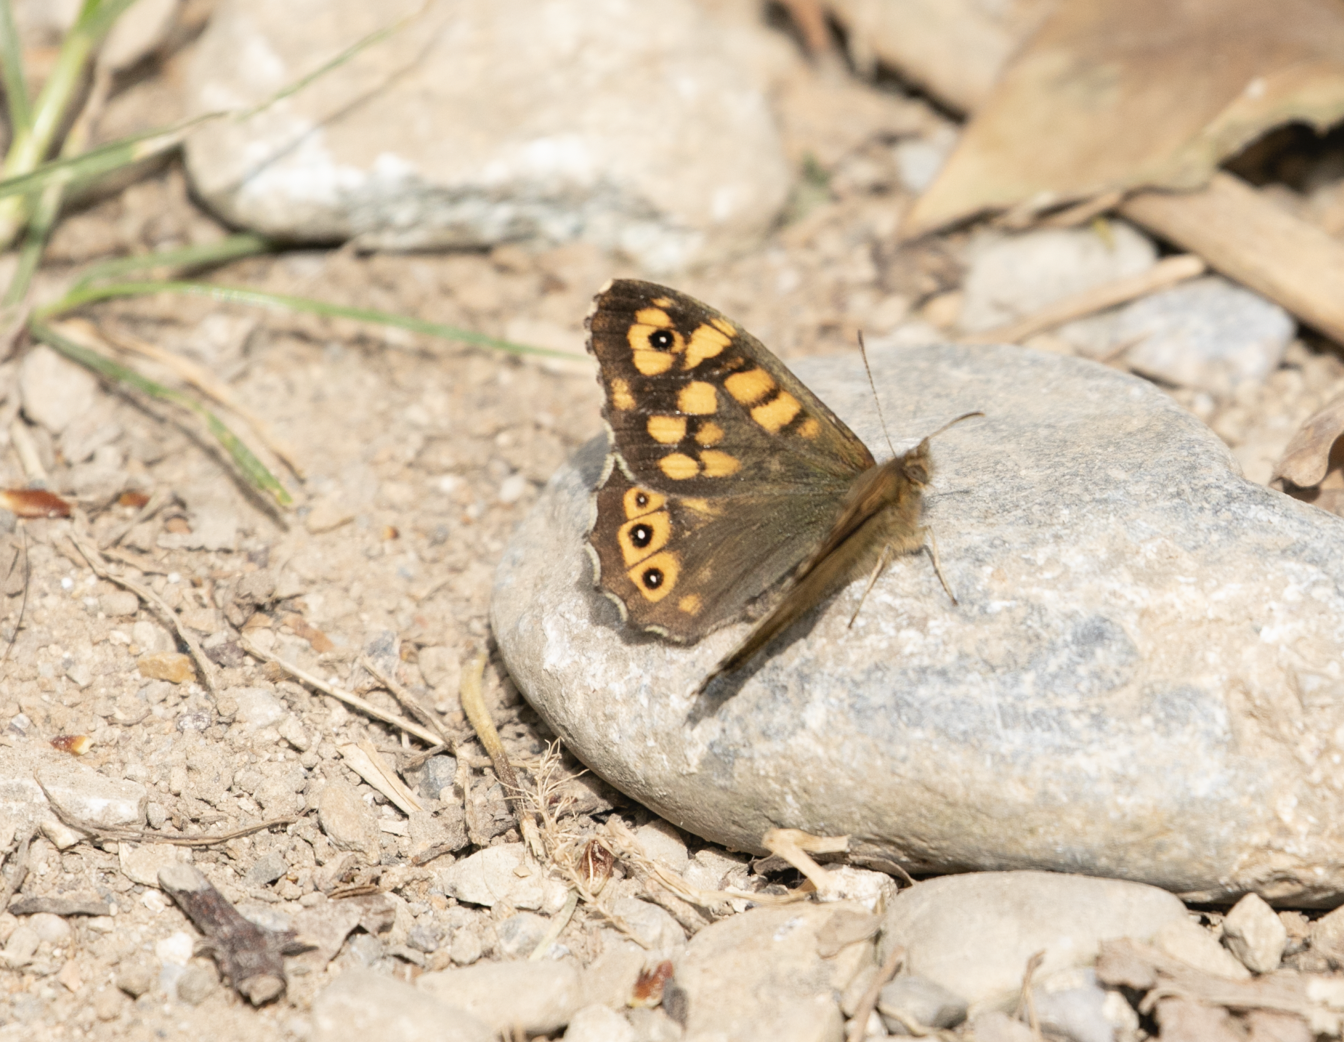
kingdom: Animalia
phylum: Arthropoda
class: Insecta
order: Lepidoptera
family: Nymphalidae
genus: Pararge
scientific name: Pararge aegeria
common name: Speckled wood
